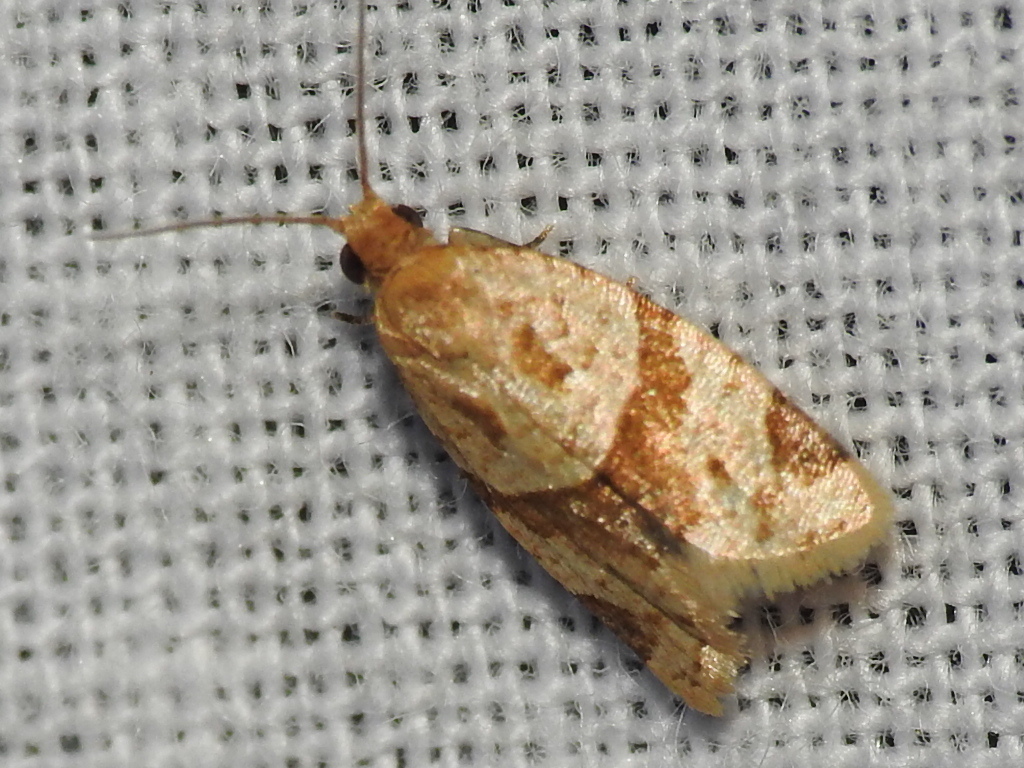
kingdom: Animalia
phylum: Arthropoda
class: Insecta
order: Lepidoptera
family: Tortricidae
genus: Clepsis
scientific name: Clepsis peritana
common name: Garden tortrix
